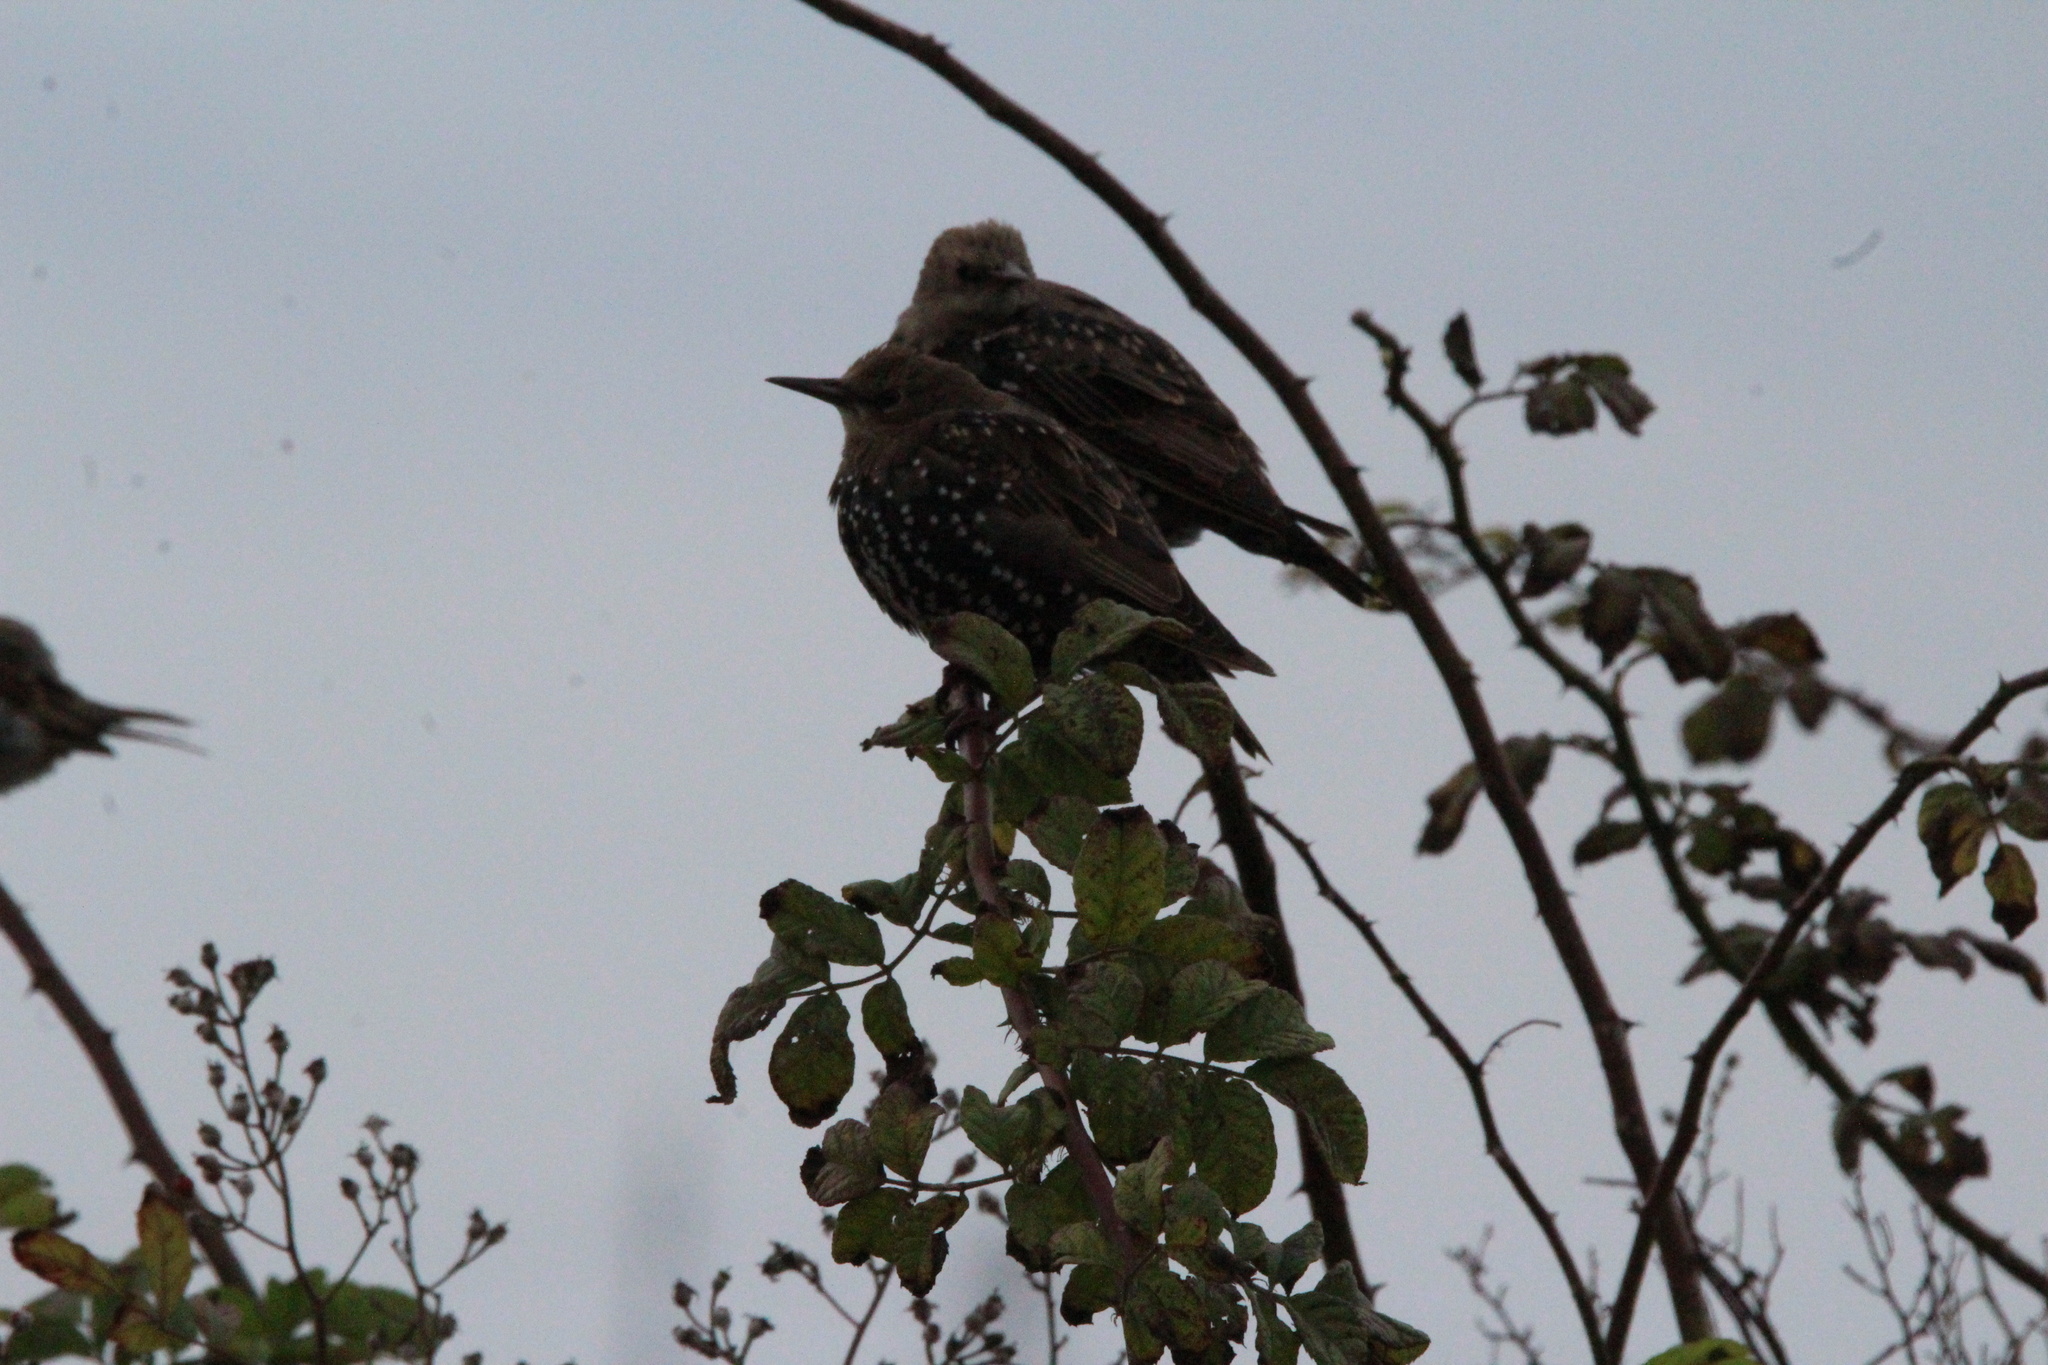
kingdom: Animalia
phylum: Chordata
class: Aves
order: Passeriformes
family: Sturnidae
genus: Sturnus
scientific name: Sturnus vulgaris
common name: Common starling
